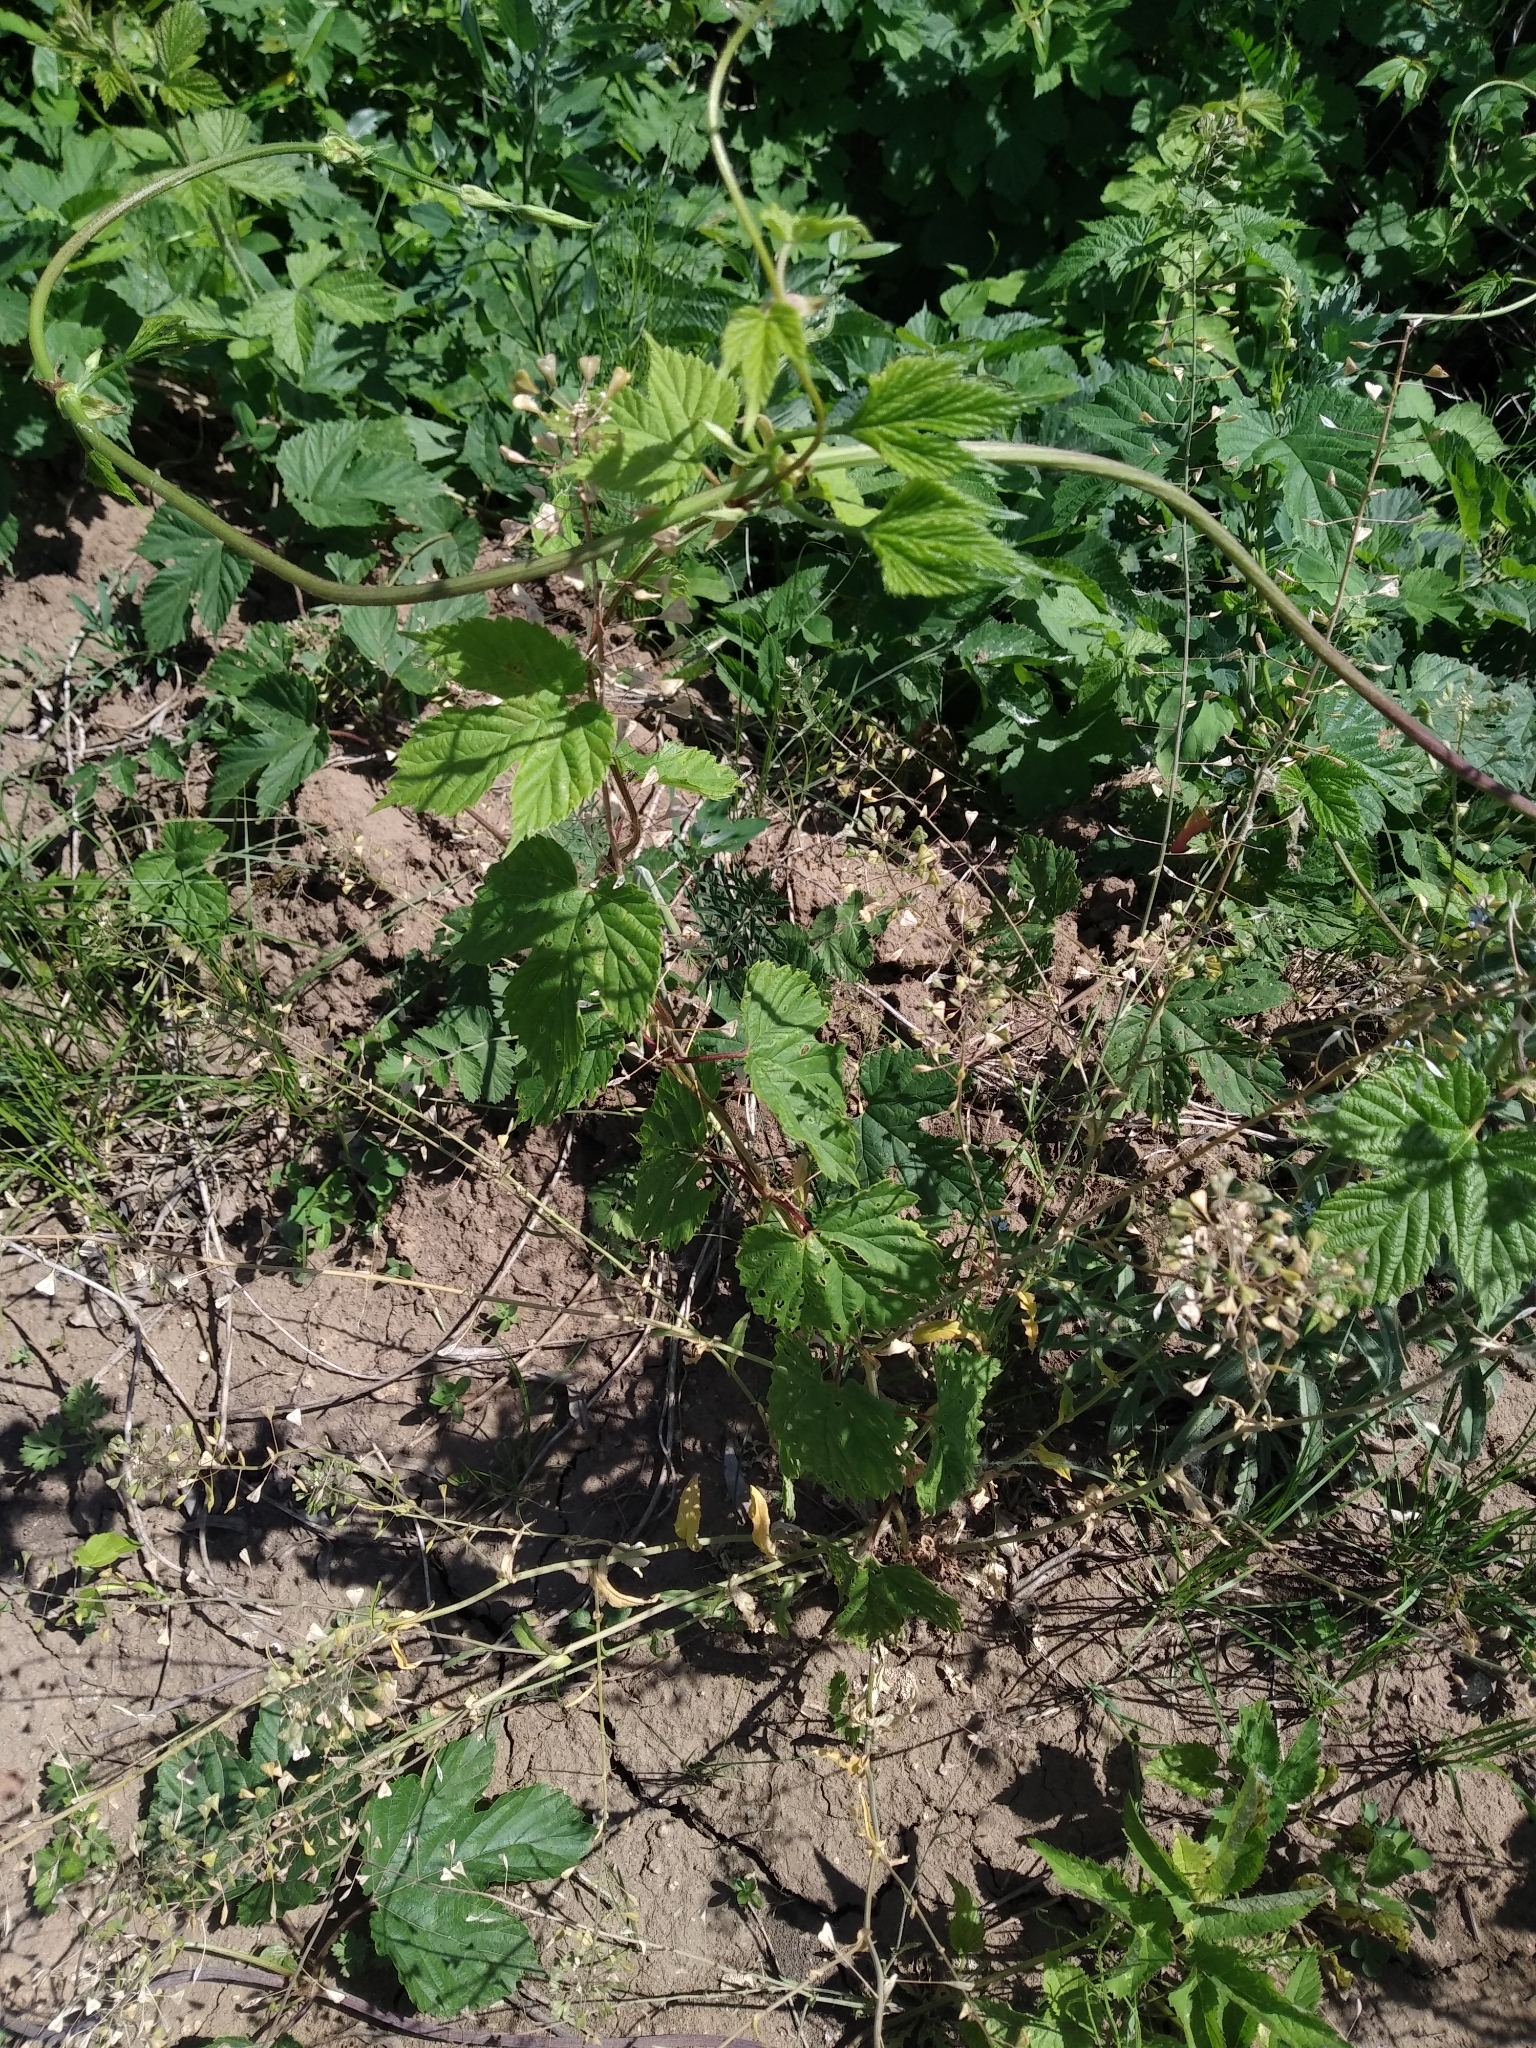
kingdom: Plantae
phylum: Tracheophyta
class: Magnoliopsida
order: Rosales
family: Cannabaceae
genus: Humulus
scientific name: Humulus lupulus
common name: Hop
